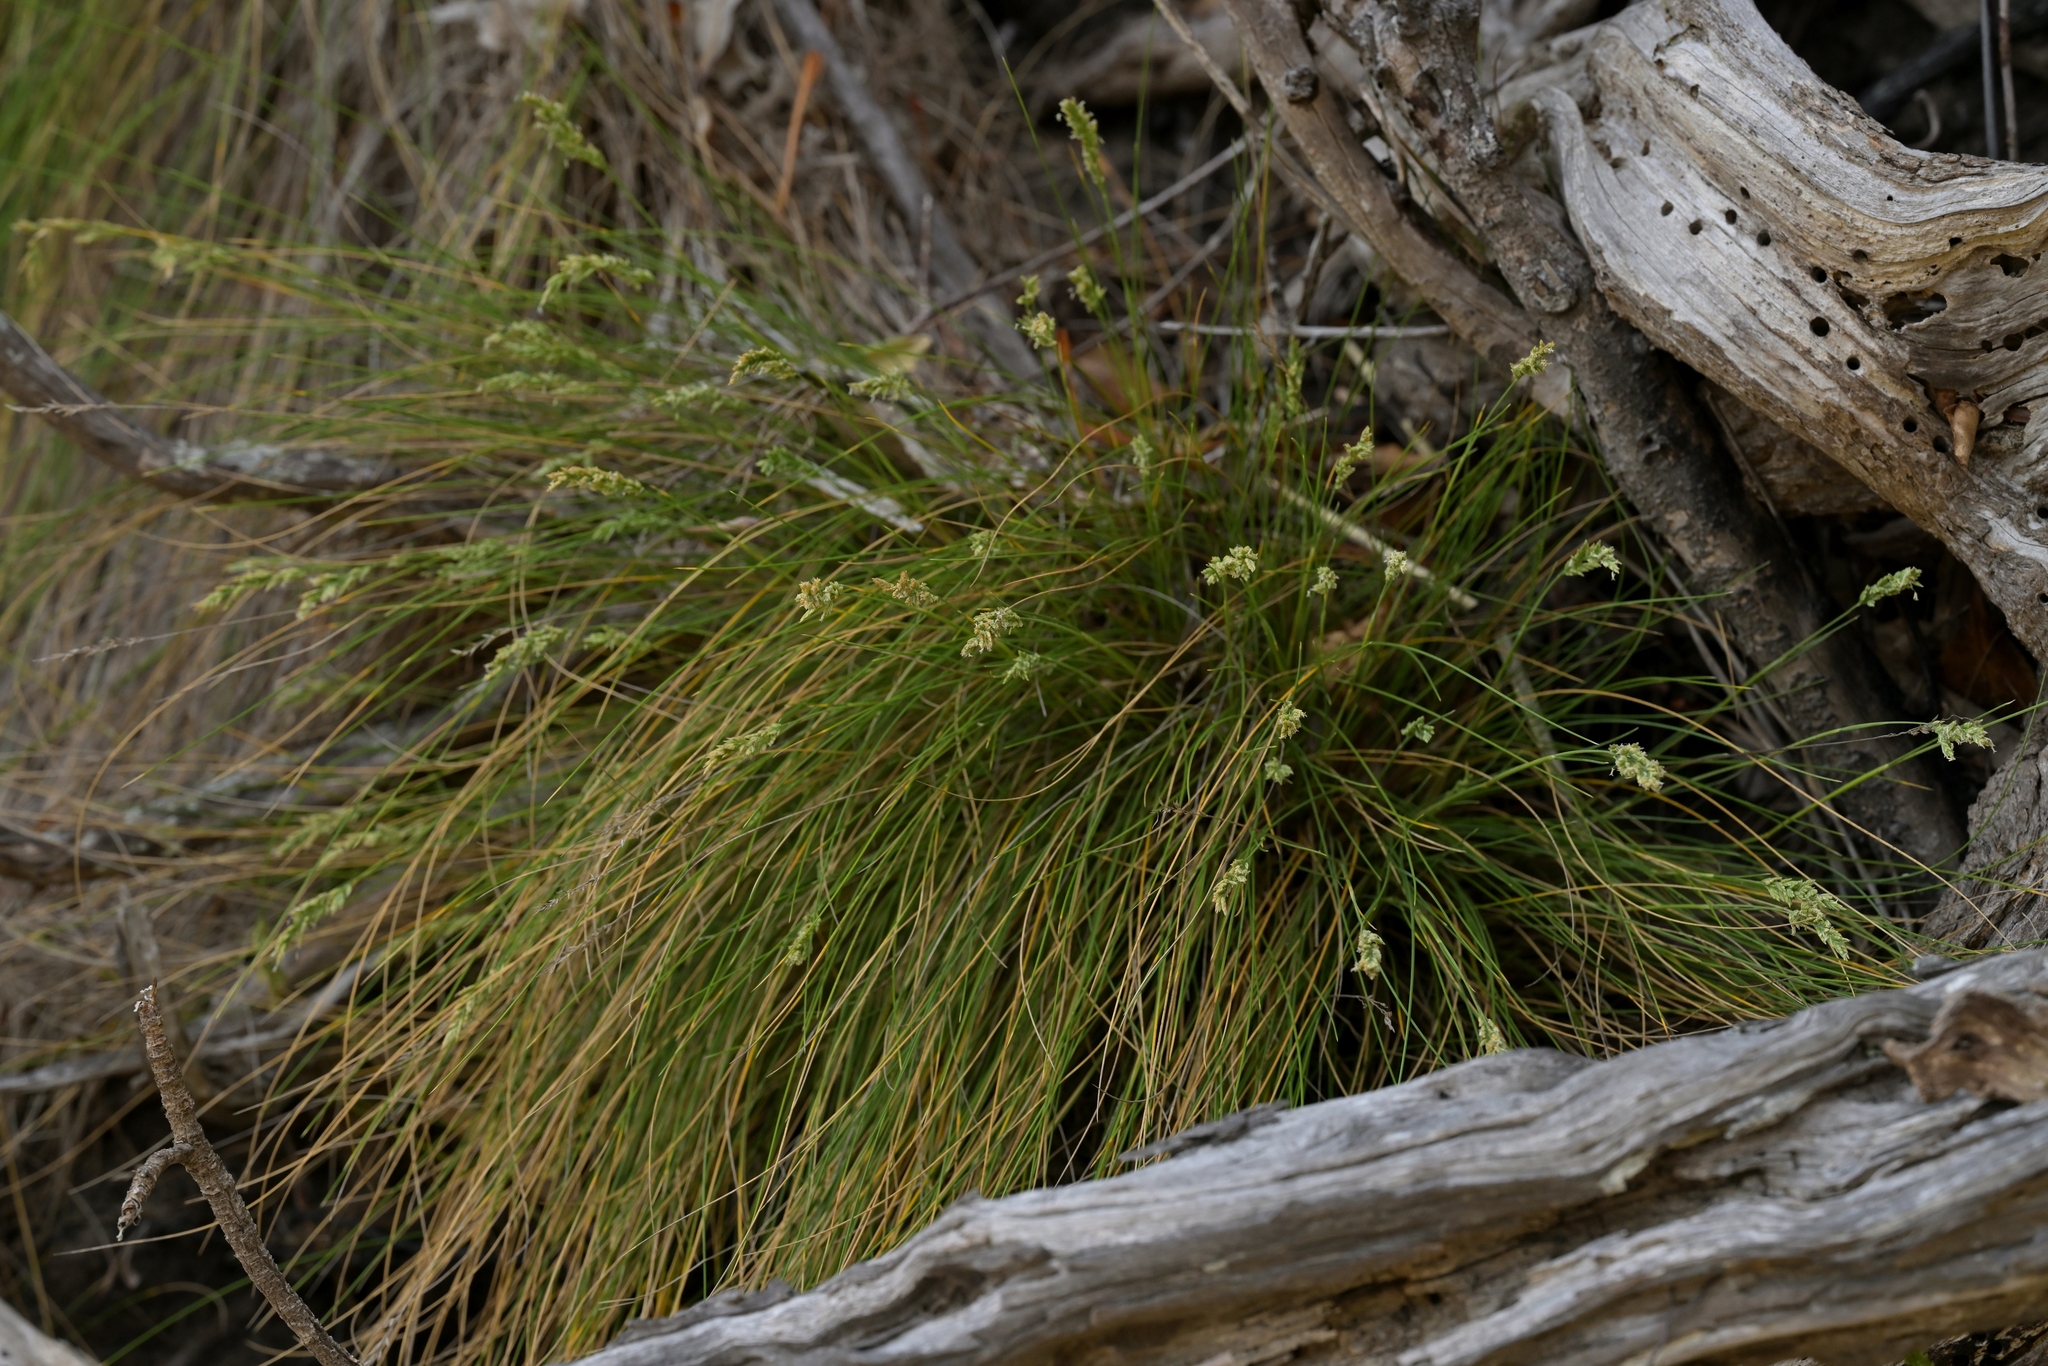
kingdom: Plantae
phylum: Tracheophyta
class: Liliopsida
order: Poales
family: Poaceae
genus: Poa
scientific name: Poa astonii
